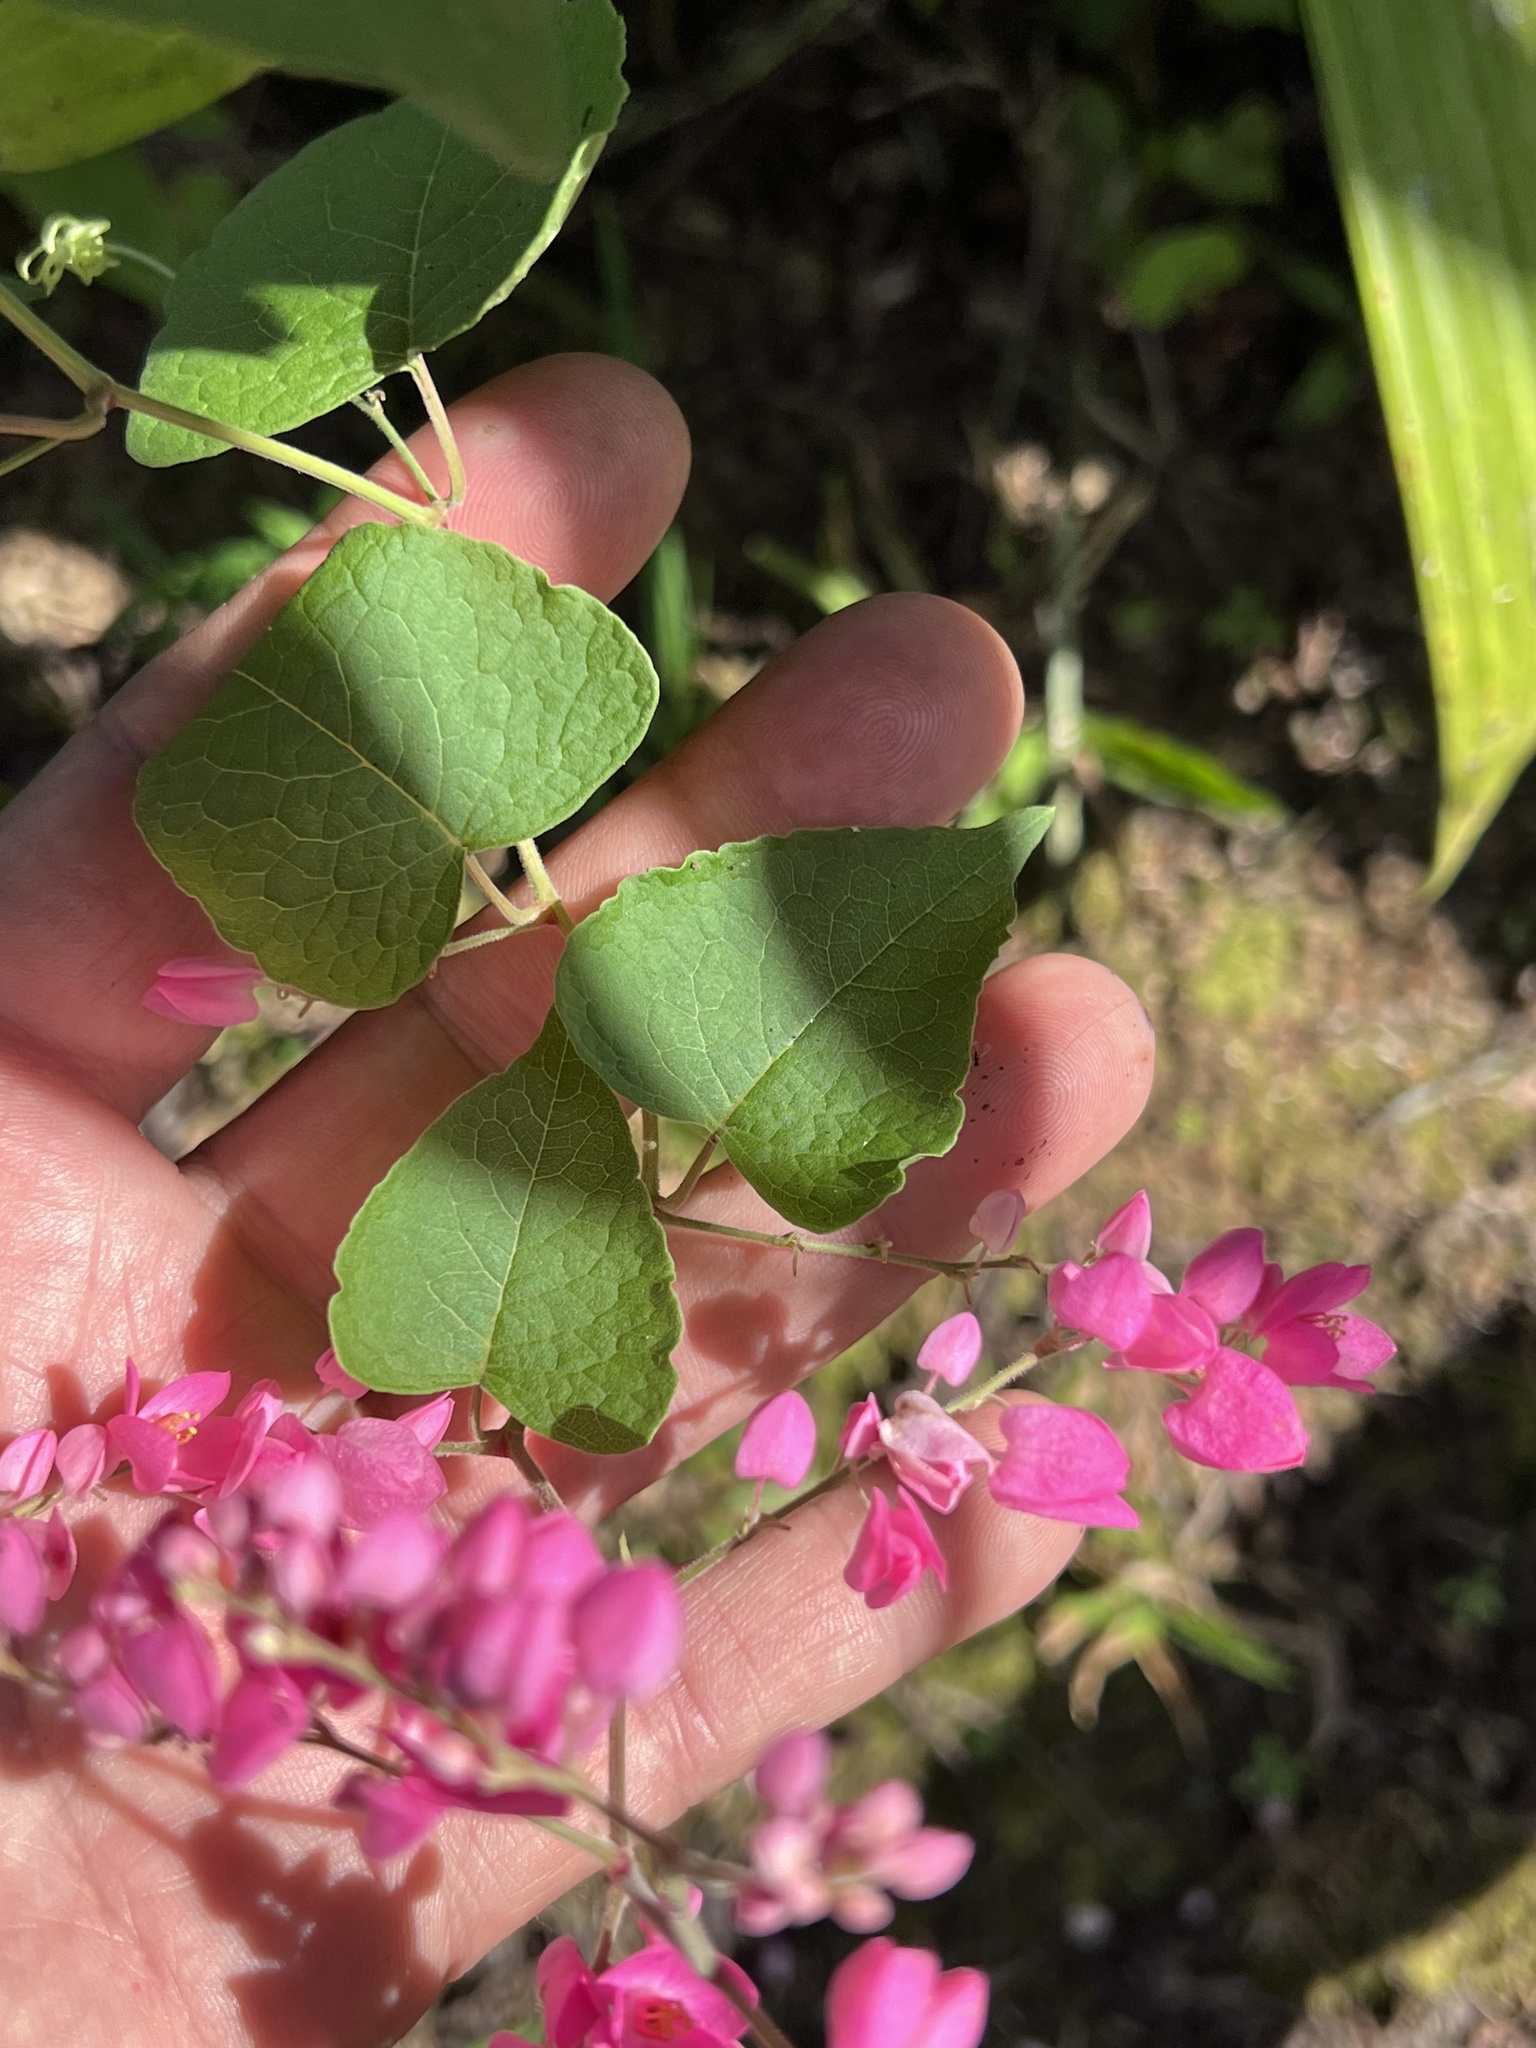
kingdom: Plantae
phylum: Tracheophyta
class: Magnoliopsida
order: Caryophyllales
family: Polygonaceae
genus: Antigonon
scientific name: Antigonon leptopus
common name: Coral vine
